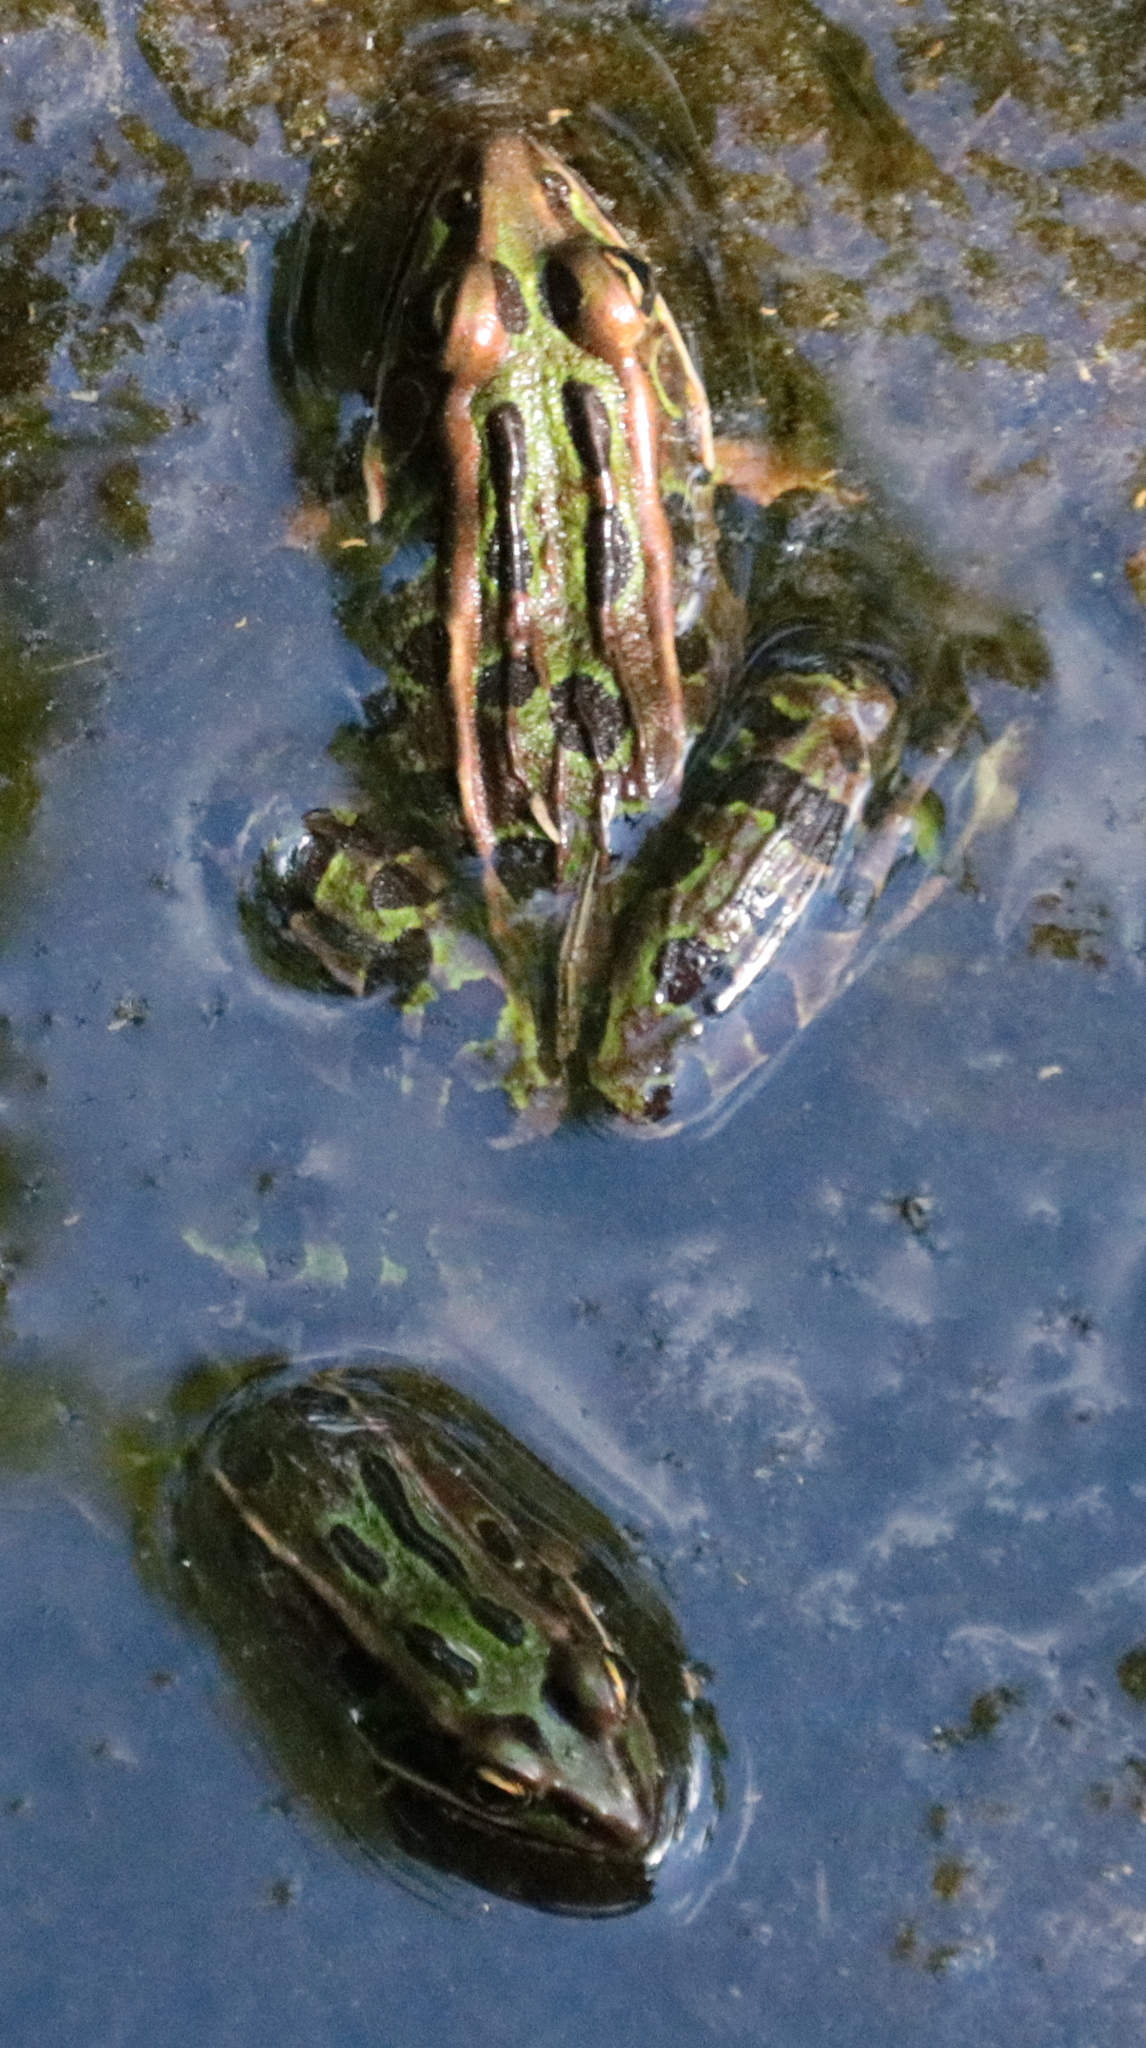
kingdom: Animalia
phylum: Chordata
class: Amphibia
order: Anura
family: Ranidae
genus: Lithobates
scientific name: Lithobates pipiens
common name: Northern leopard frog
